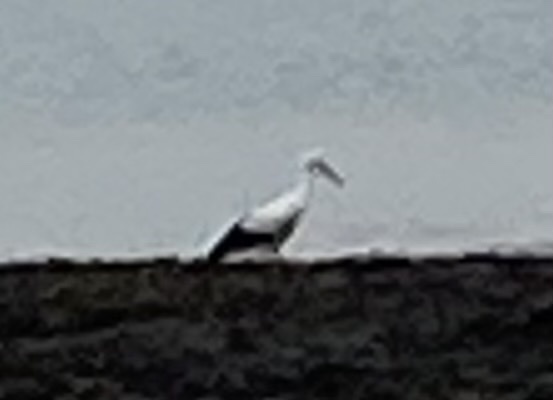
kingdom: Animalia
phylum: Chordata
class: Aves
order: Ciconiiformes
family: Ciconiidae
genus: Ciconia
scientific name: Ciconia ciconia
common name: White stork
